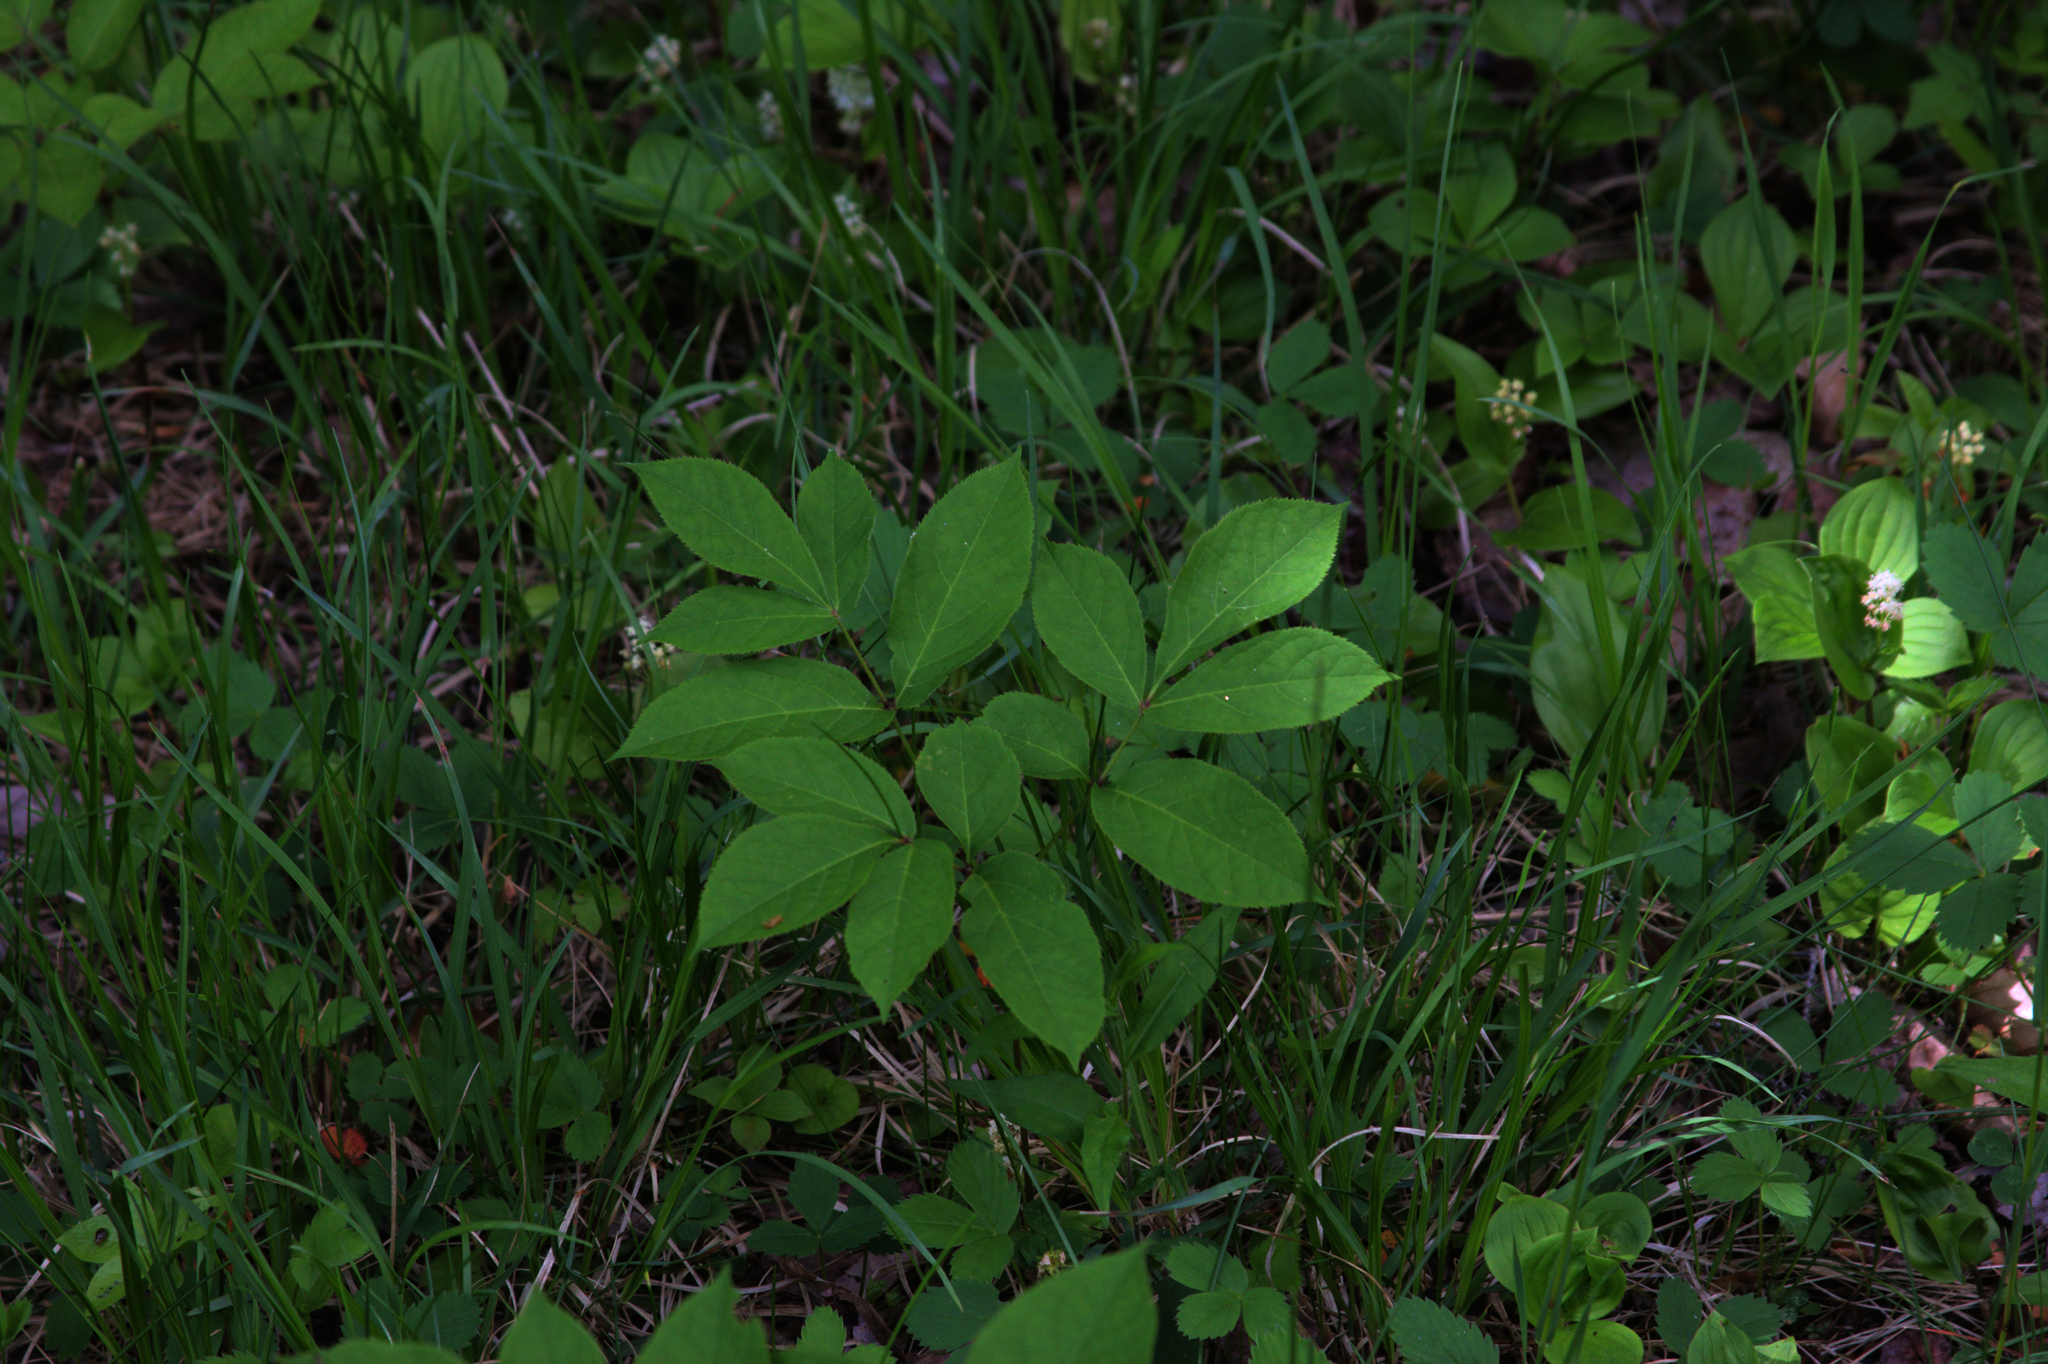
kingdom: Plantae
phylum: Tracheophyta
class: Magnoliopsida
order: Apiales
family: Araliaceae
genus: Aralia
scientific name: Aralia nudicaulis
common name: Wild sarsaparilla
